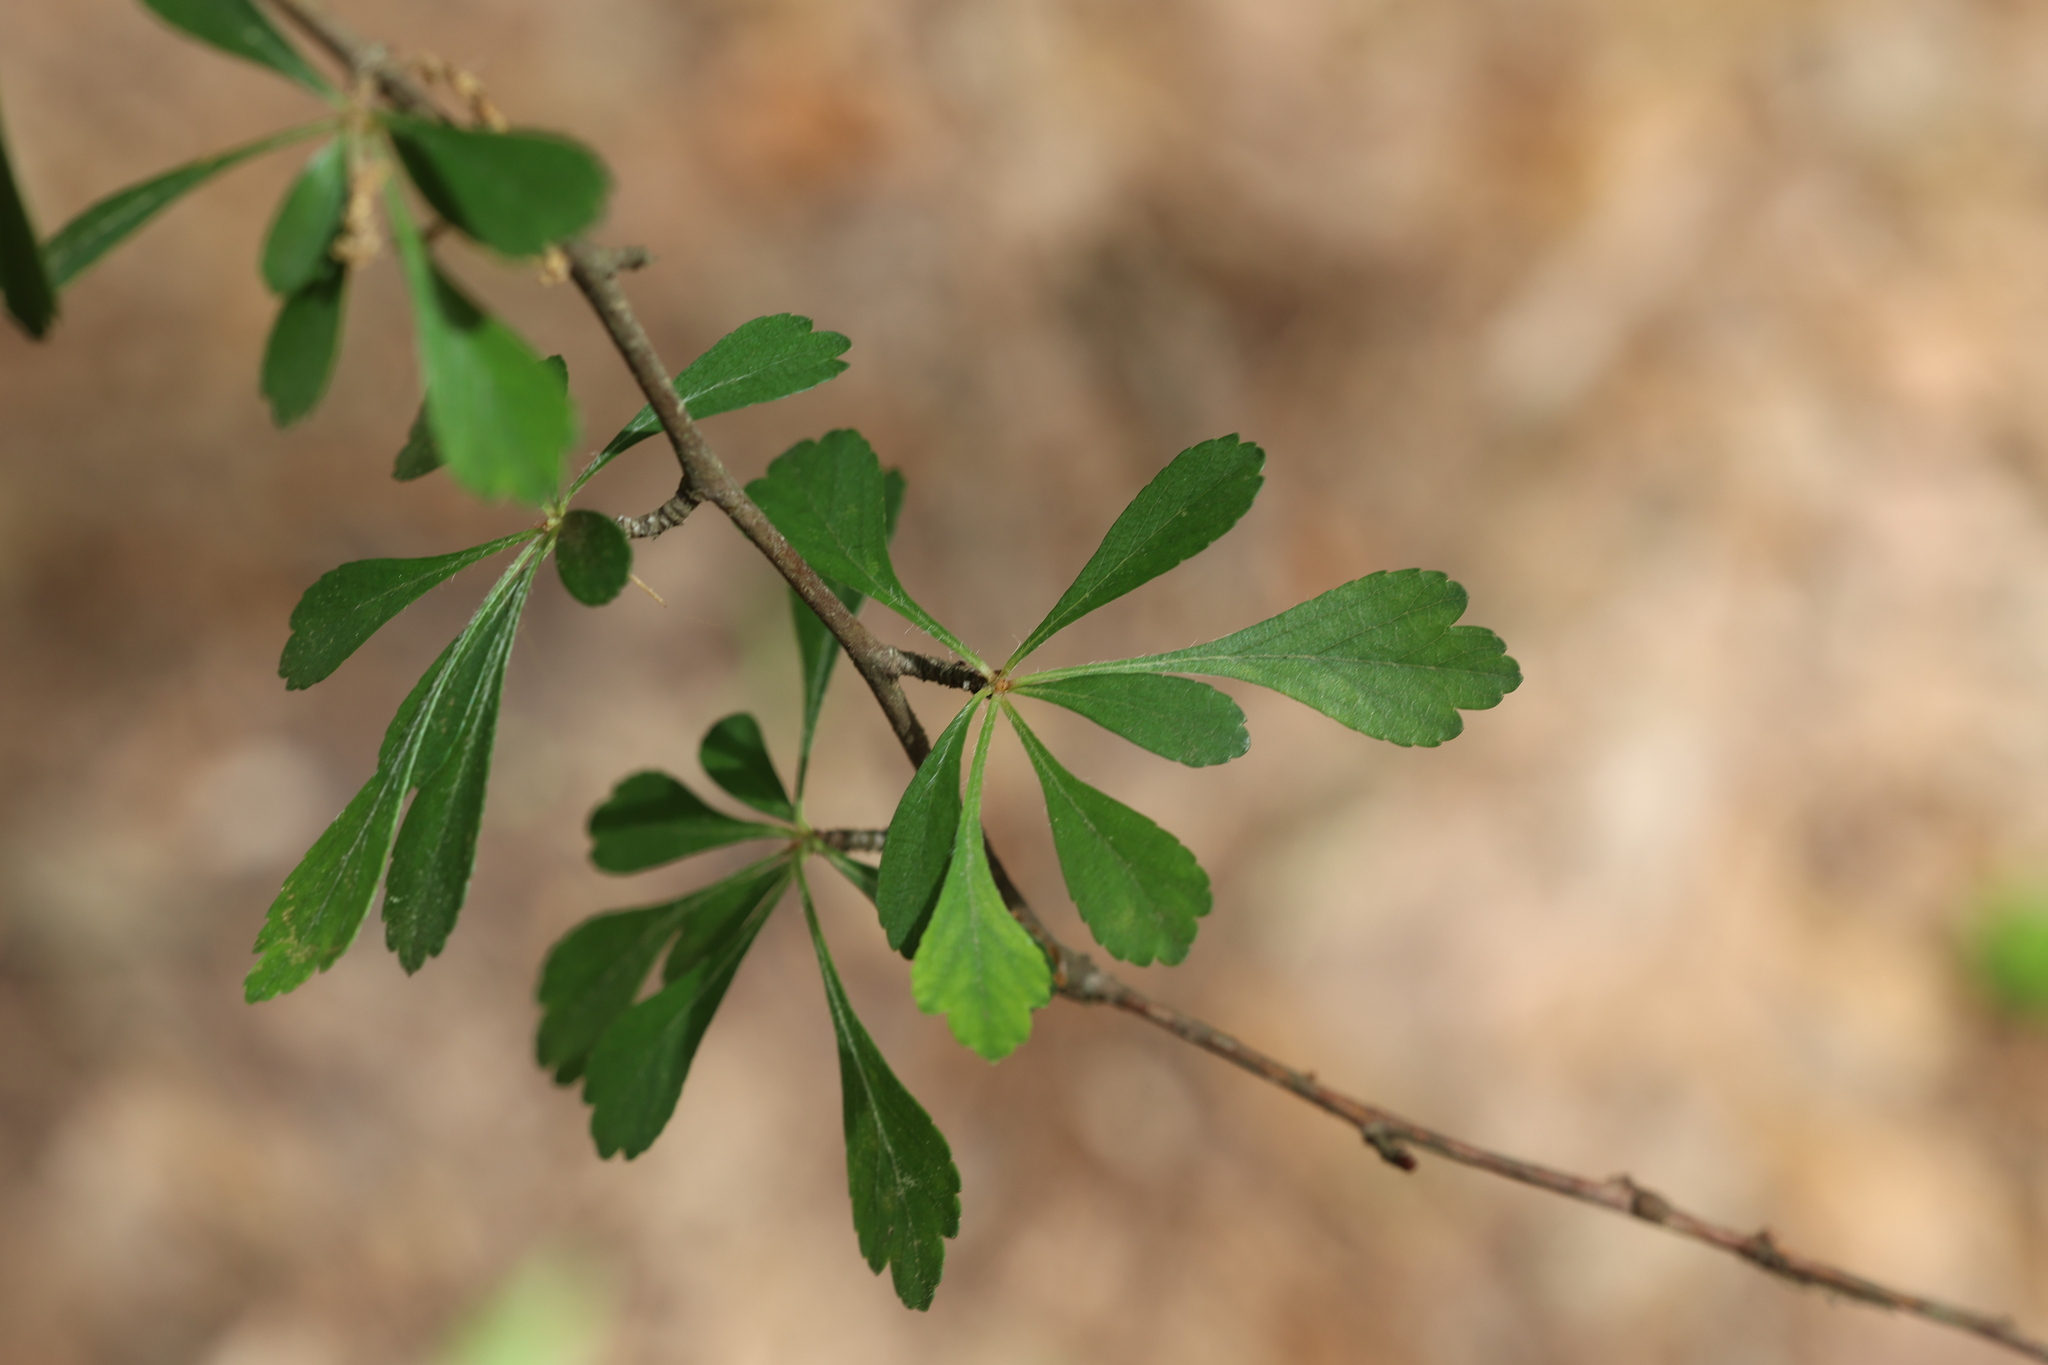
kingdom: Plantae
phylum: Tracheophyta
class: Magnoliopsida
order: Rosales
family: Rosaceae
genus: Crataegus
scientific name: Crataegus spathulata
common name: Littlehip hawthorn
